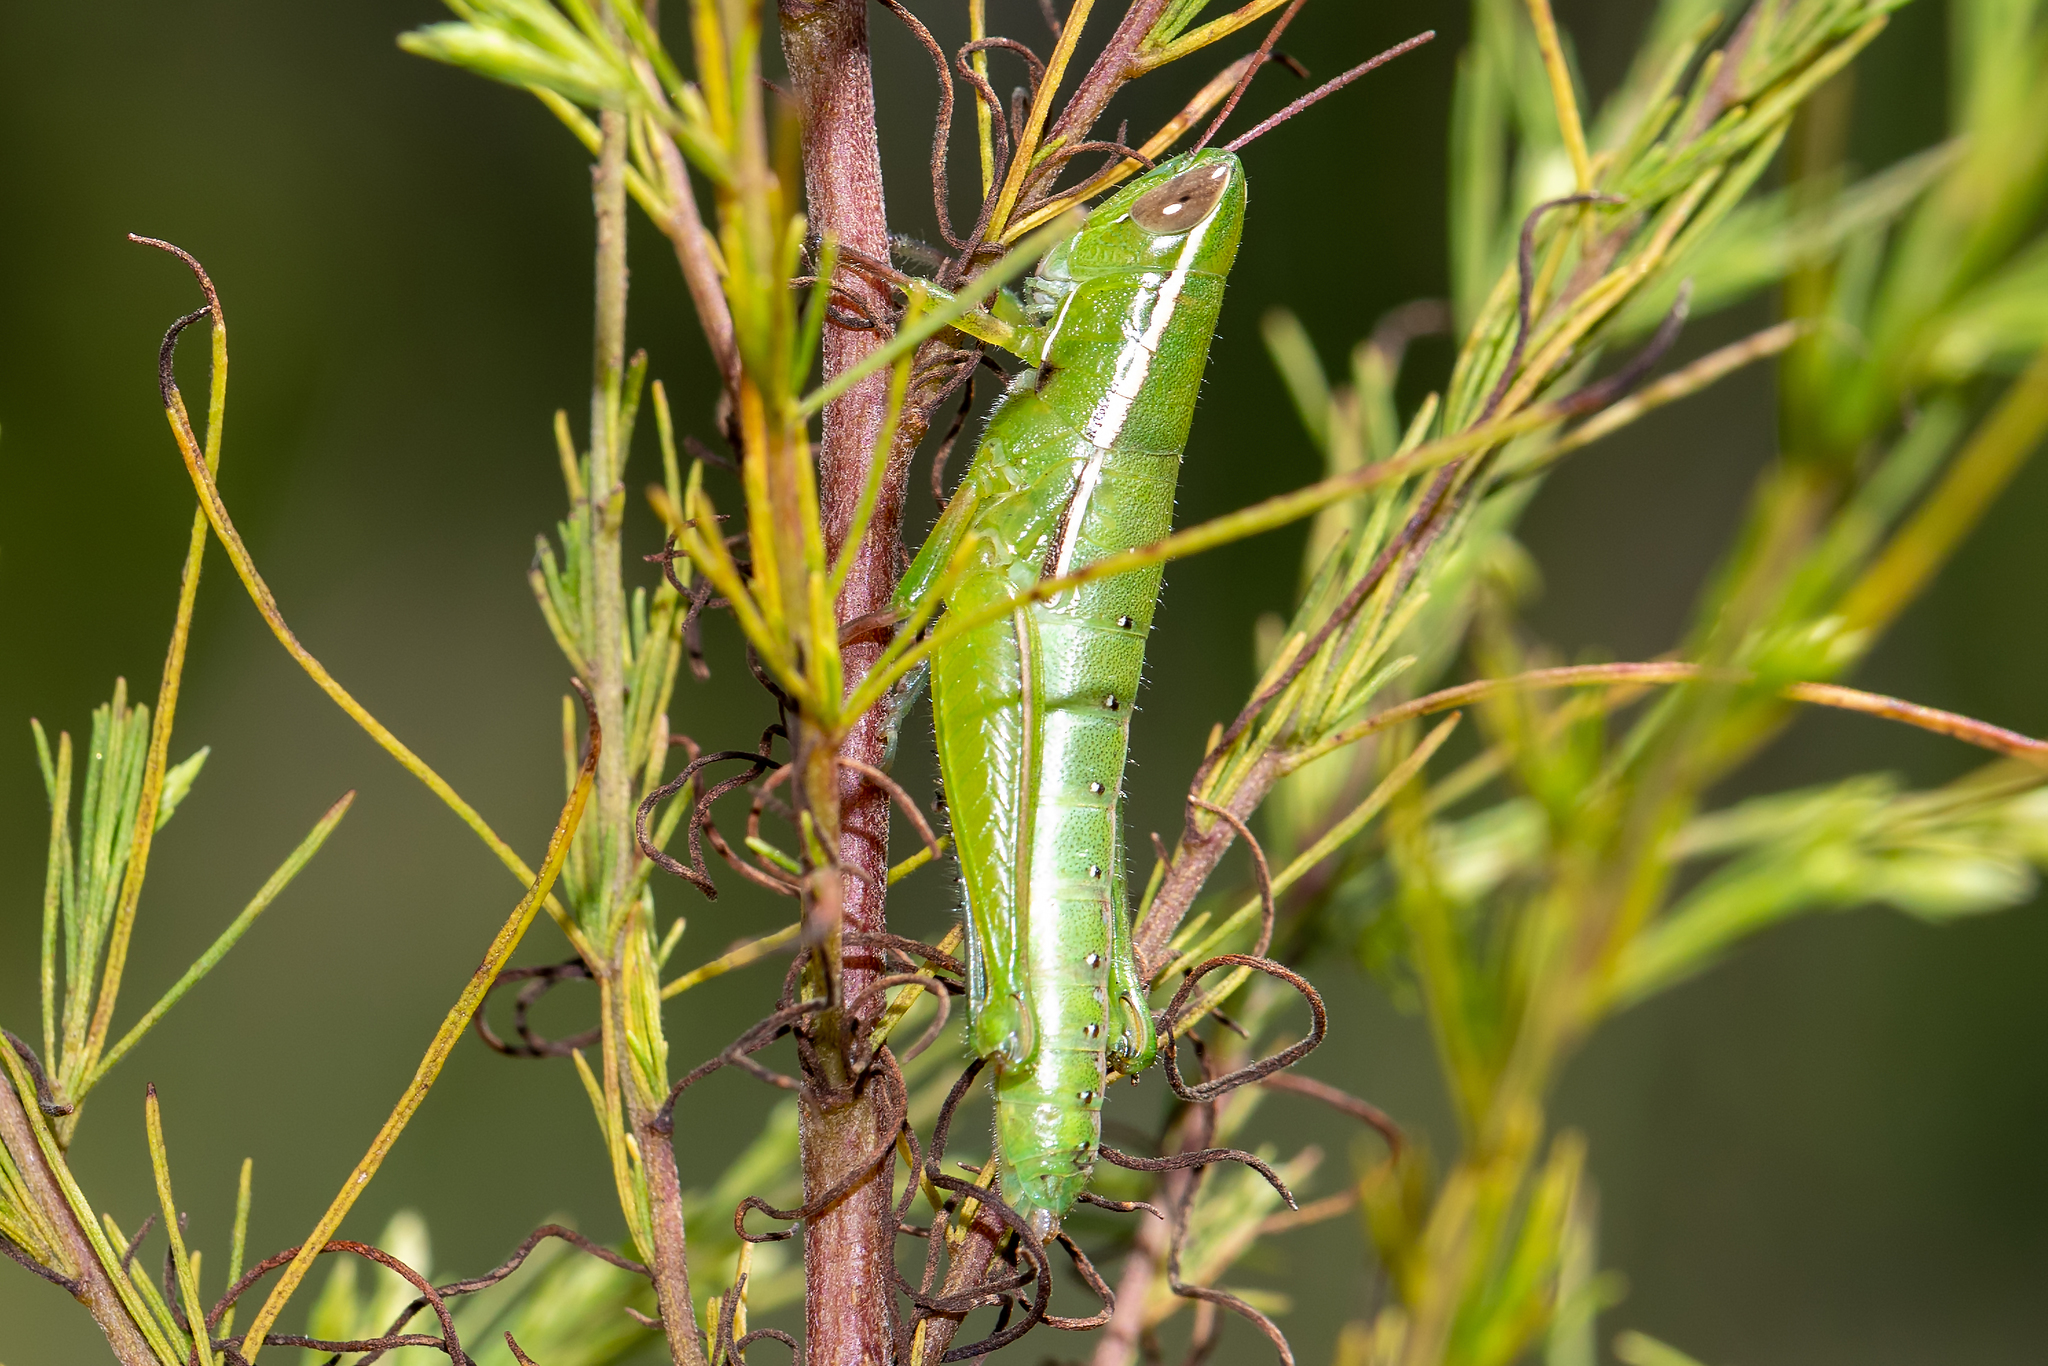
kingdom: Animalia
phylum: Arthropoda
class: Insecta
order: Orthoptera
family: Acrididae
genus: Aptenopedes
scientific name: Aptenopedes sphenarioides
